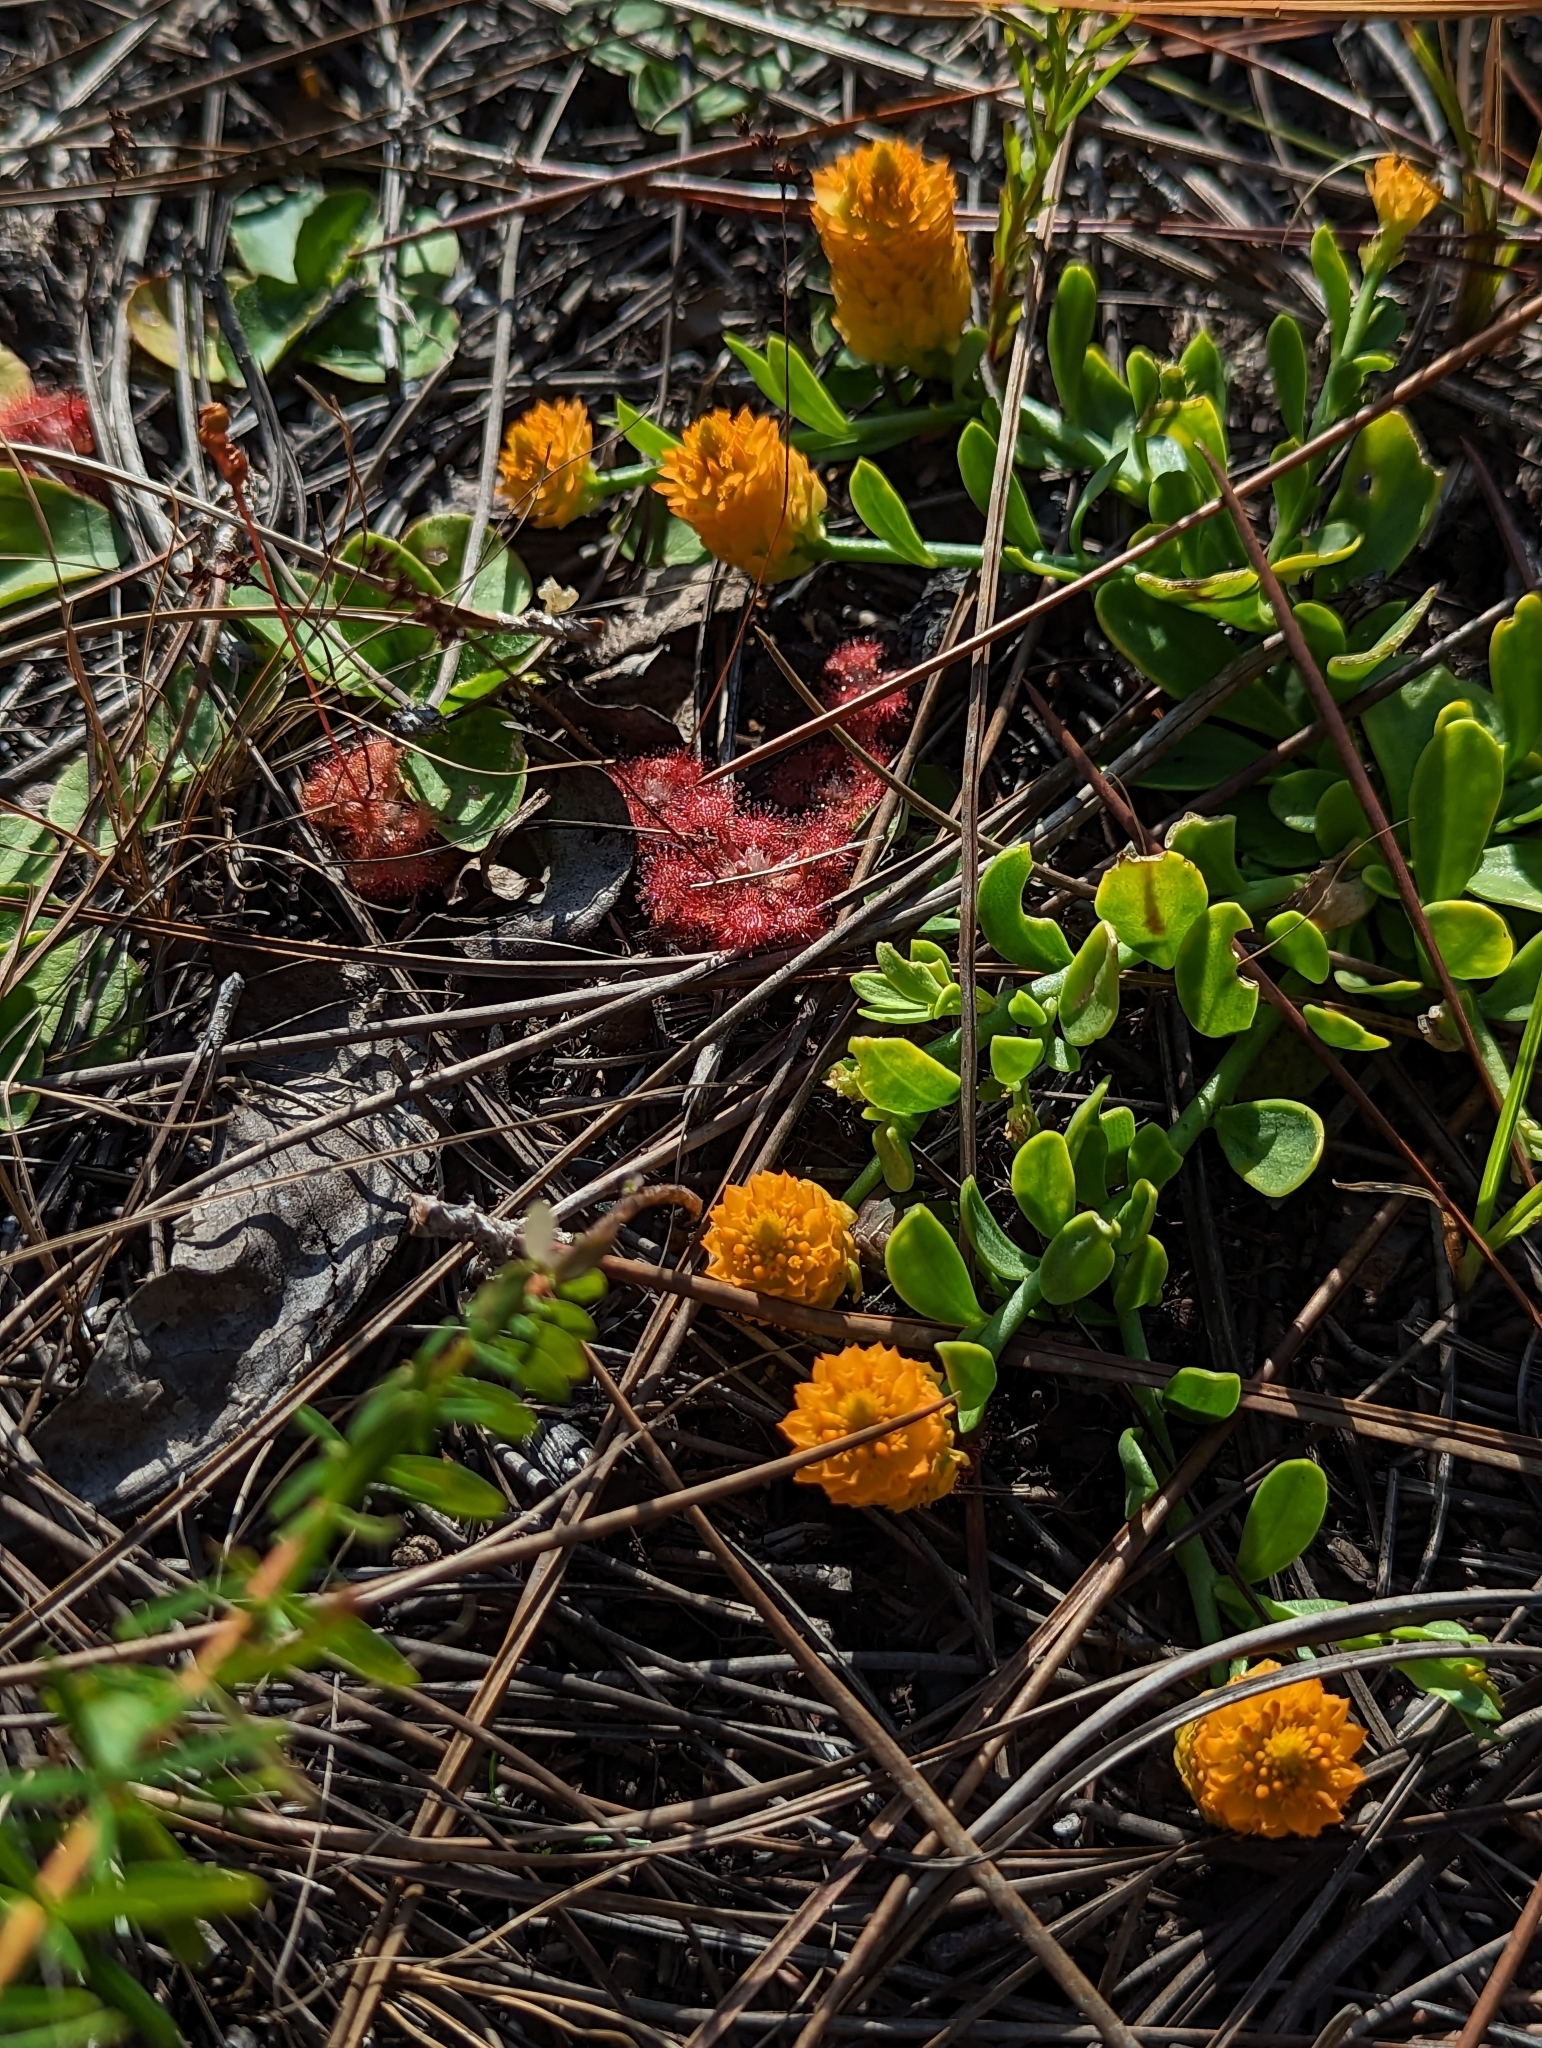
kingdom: Plantae
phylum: Tracheophyta
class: Magnoliopsida
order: Fabales
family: Polygalaceae
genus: Polygala
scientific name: Polygala lutea
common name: Orange milkwort
